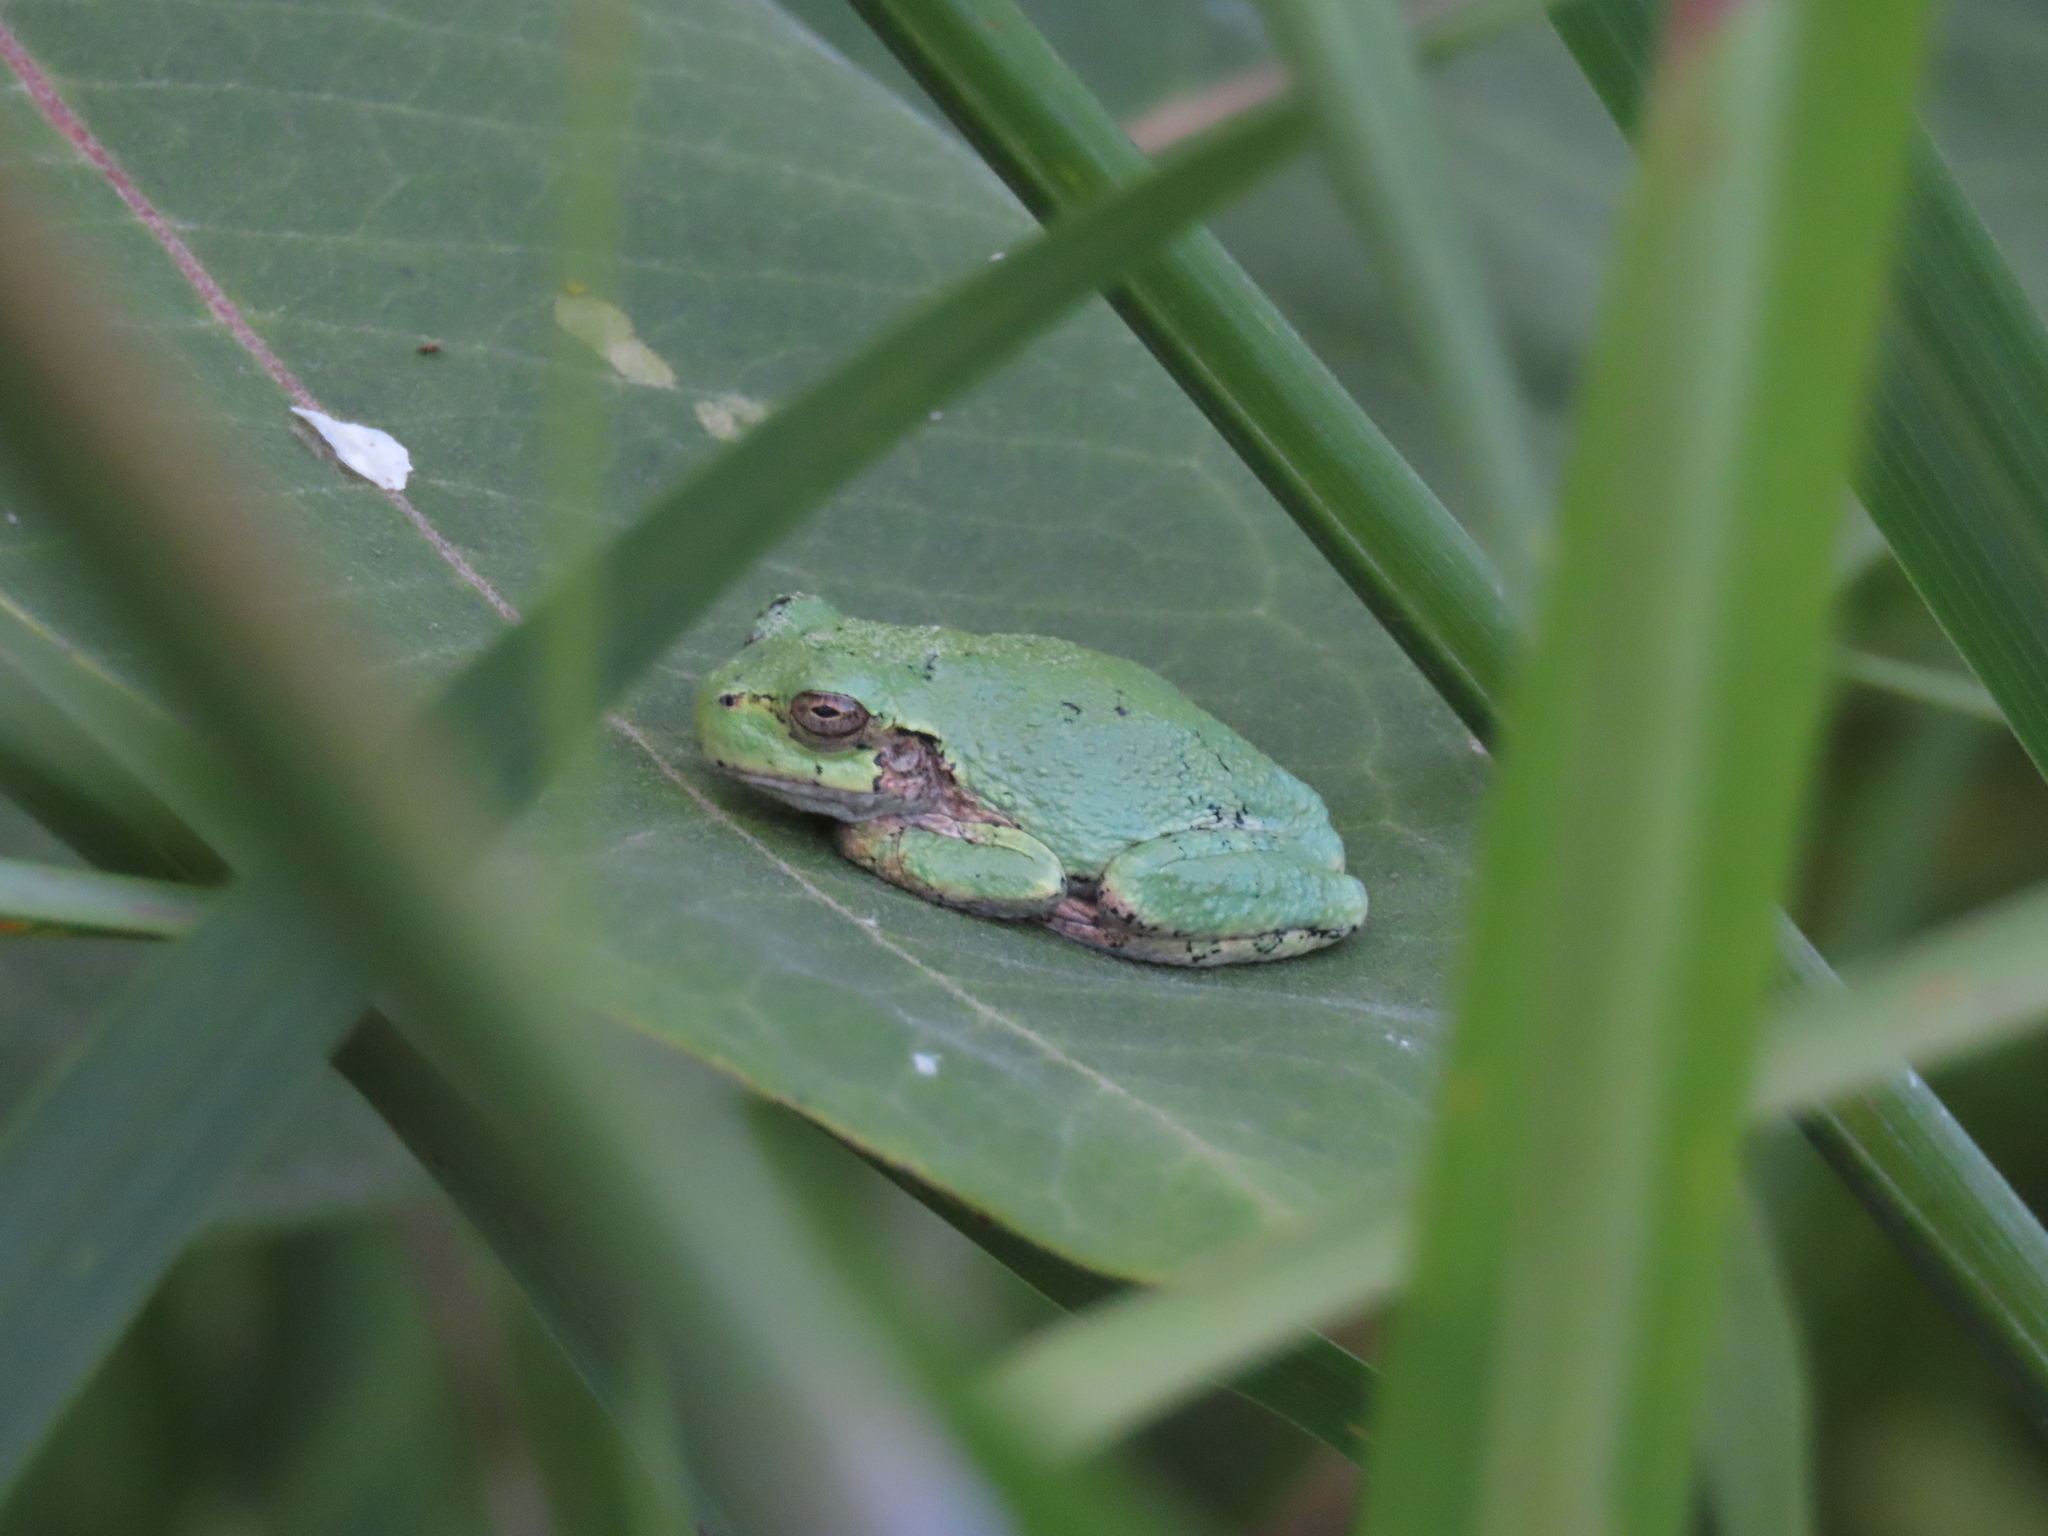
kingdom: Animalia
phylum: Chordata
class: Amphibia
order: Anura
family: Hylidae
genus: Dryophytes
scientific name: Dryophytes versicolor
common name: Gray treefrog
